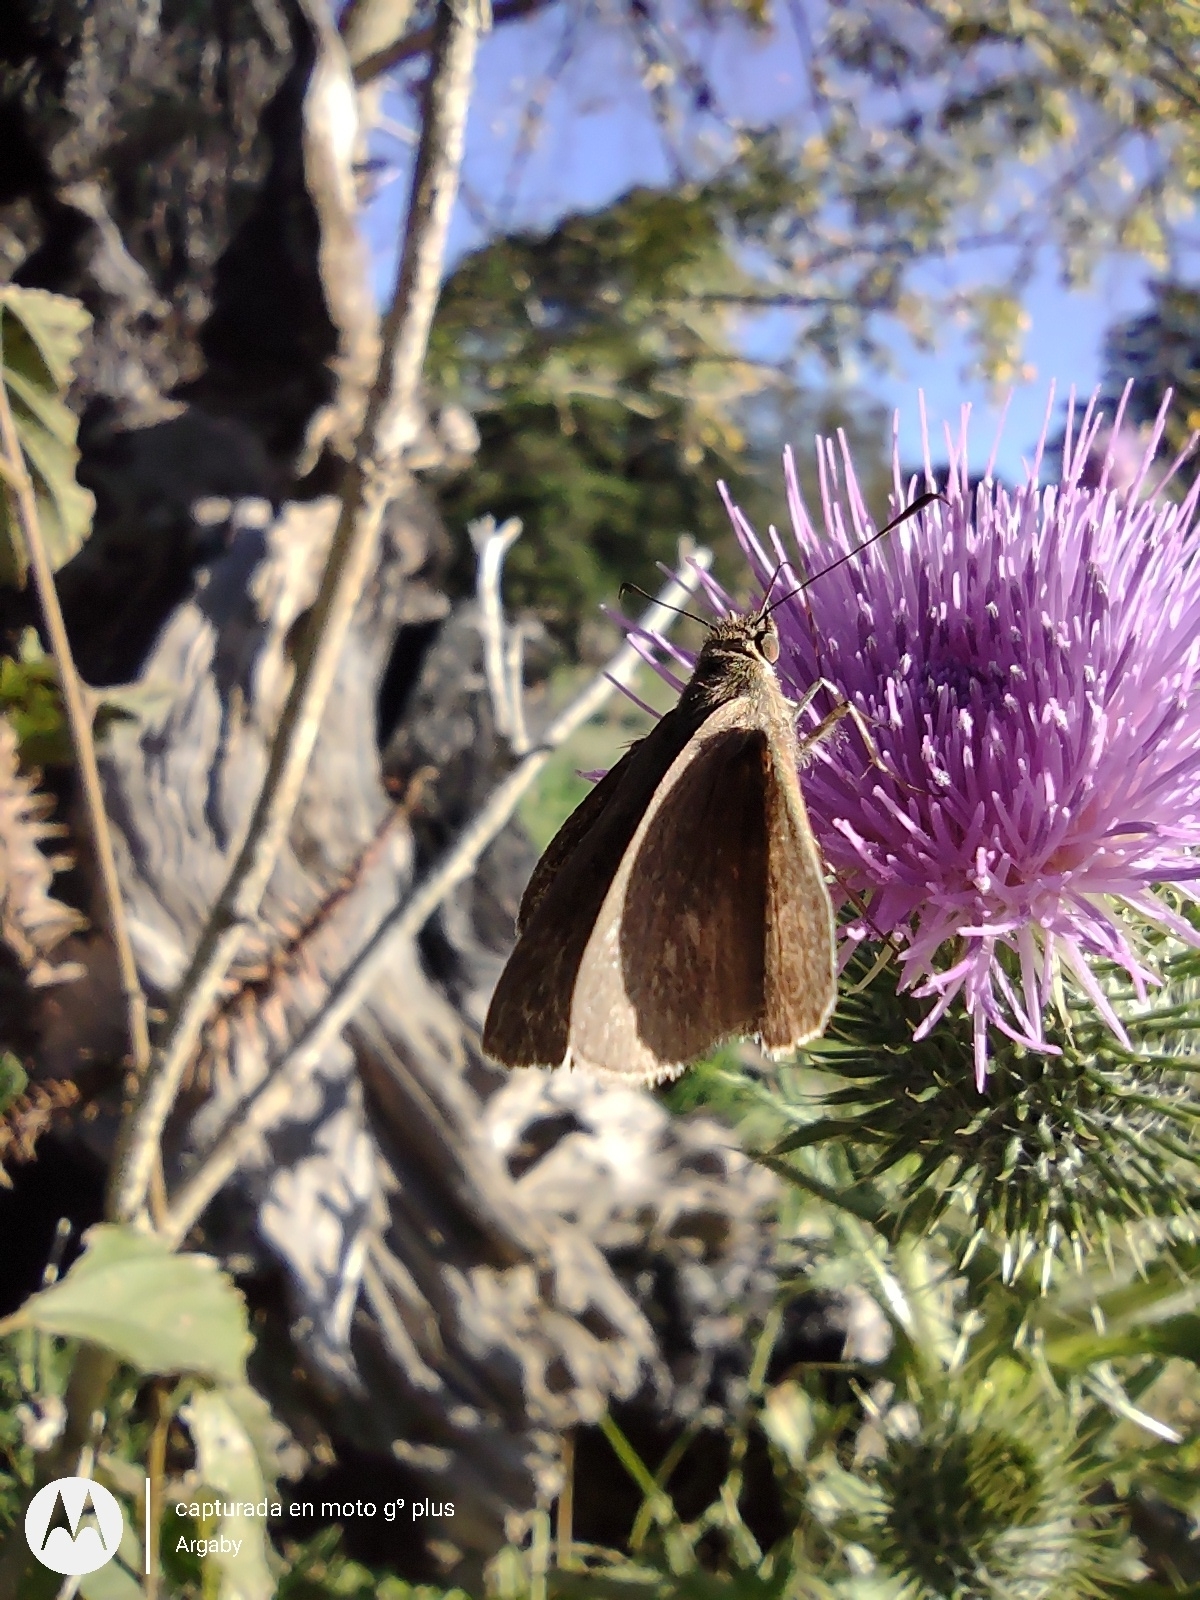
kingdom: Animalia
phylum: Arthropoda
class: Insecta
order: Lepidoptera
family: Hesperiidae
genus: Cymaenes
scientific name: Cymaenes gisca
